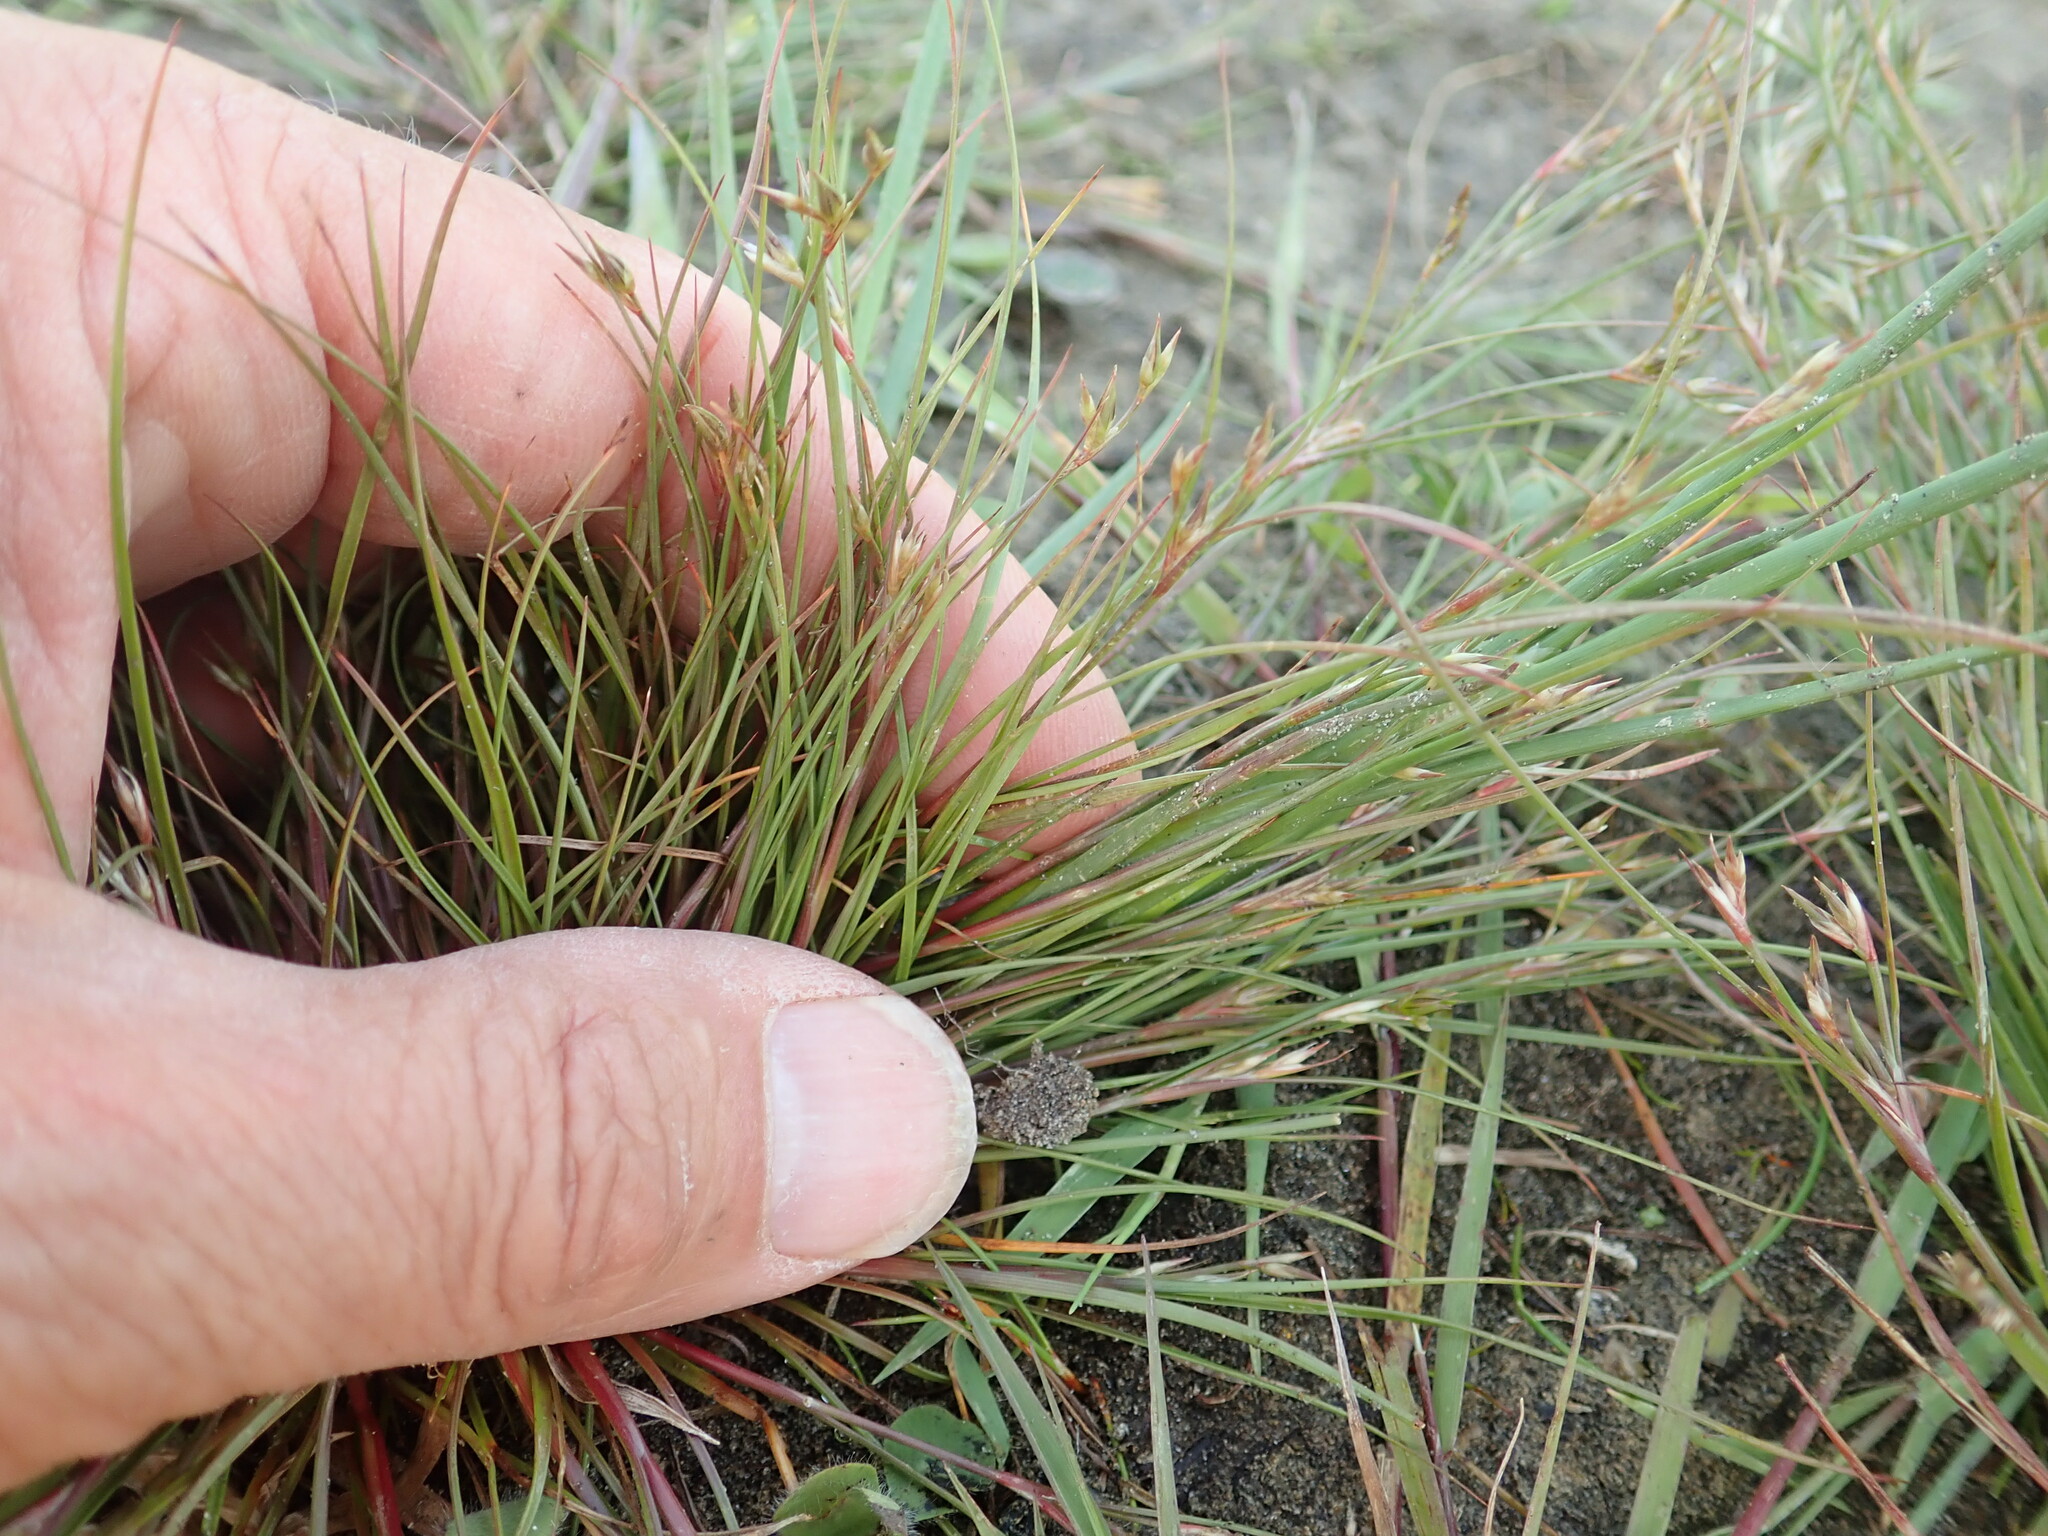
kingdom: Plantae
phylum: Tracheophyta
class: Liliopsida
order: Poales
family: Juncaceae
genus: Juncus
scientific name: Juncus bufonius
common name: Toad rush
